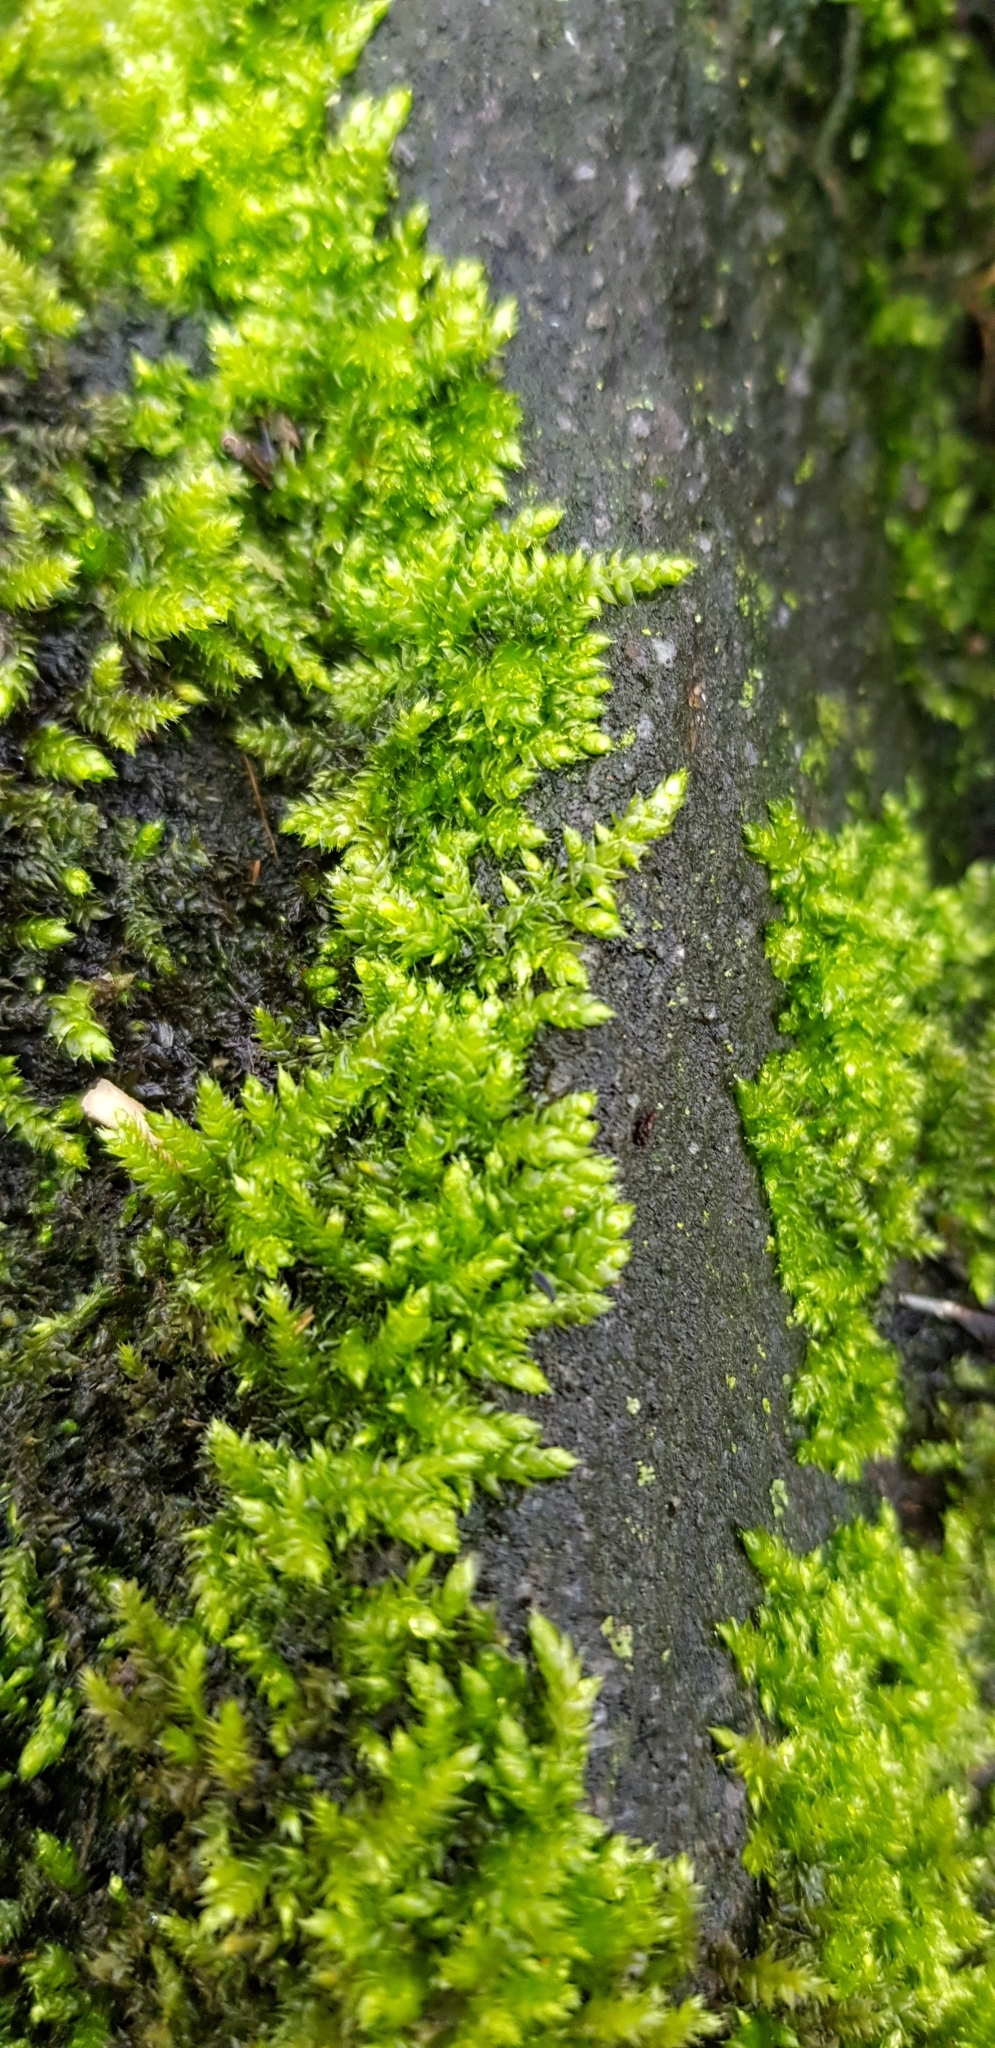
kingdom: Plantae
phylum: Bryophyta
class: Bryopsida
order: Hypnales
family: Brachytheciaceae
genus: Brachythecium
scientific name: Brachythecium rutabulum
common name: Rough-stalked feather-moss
